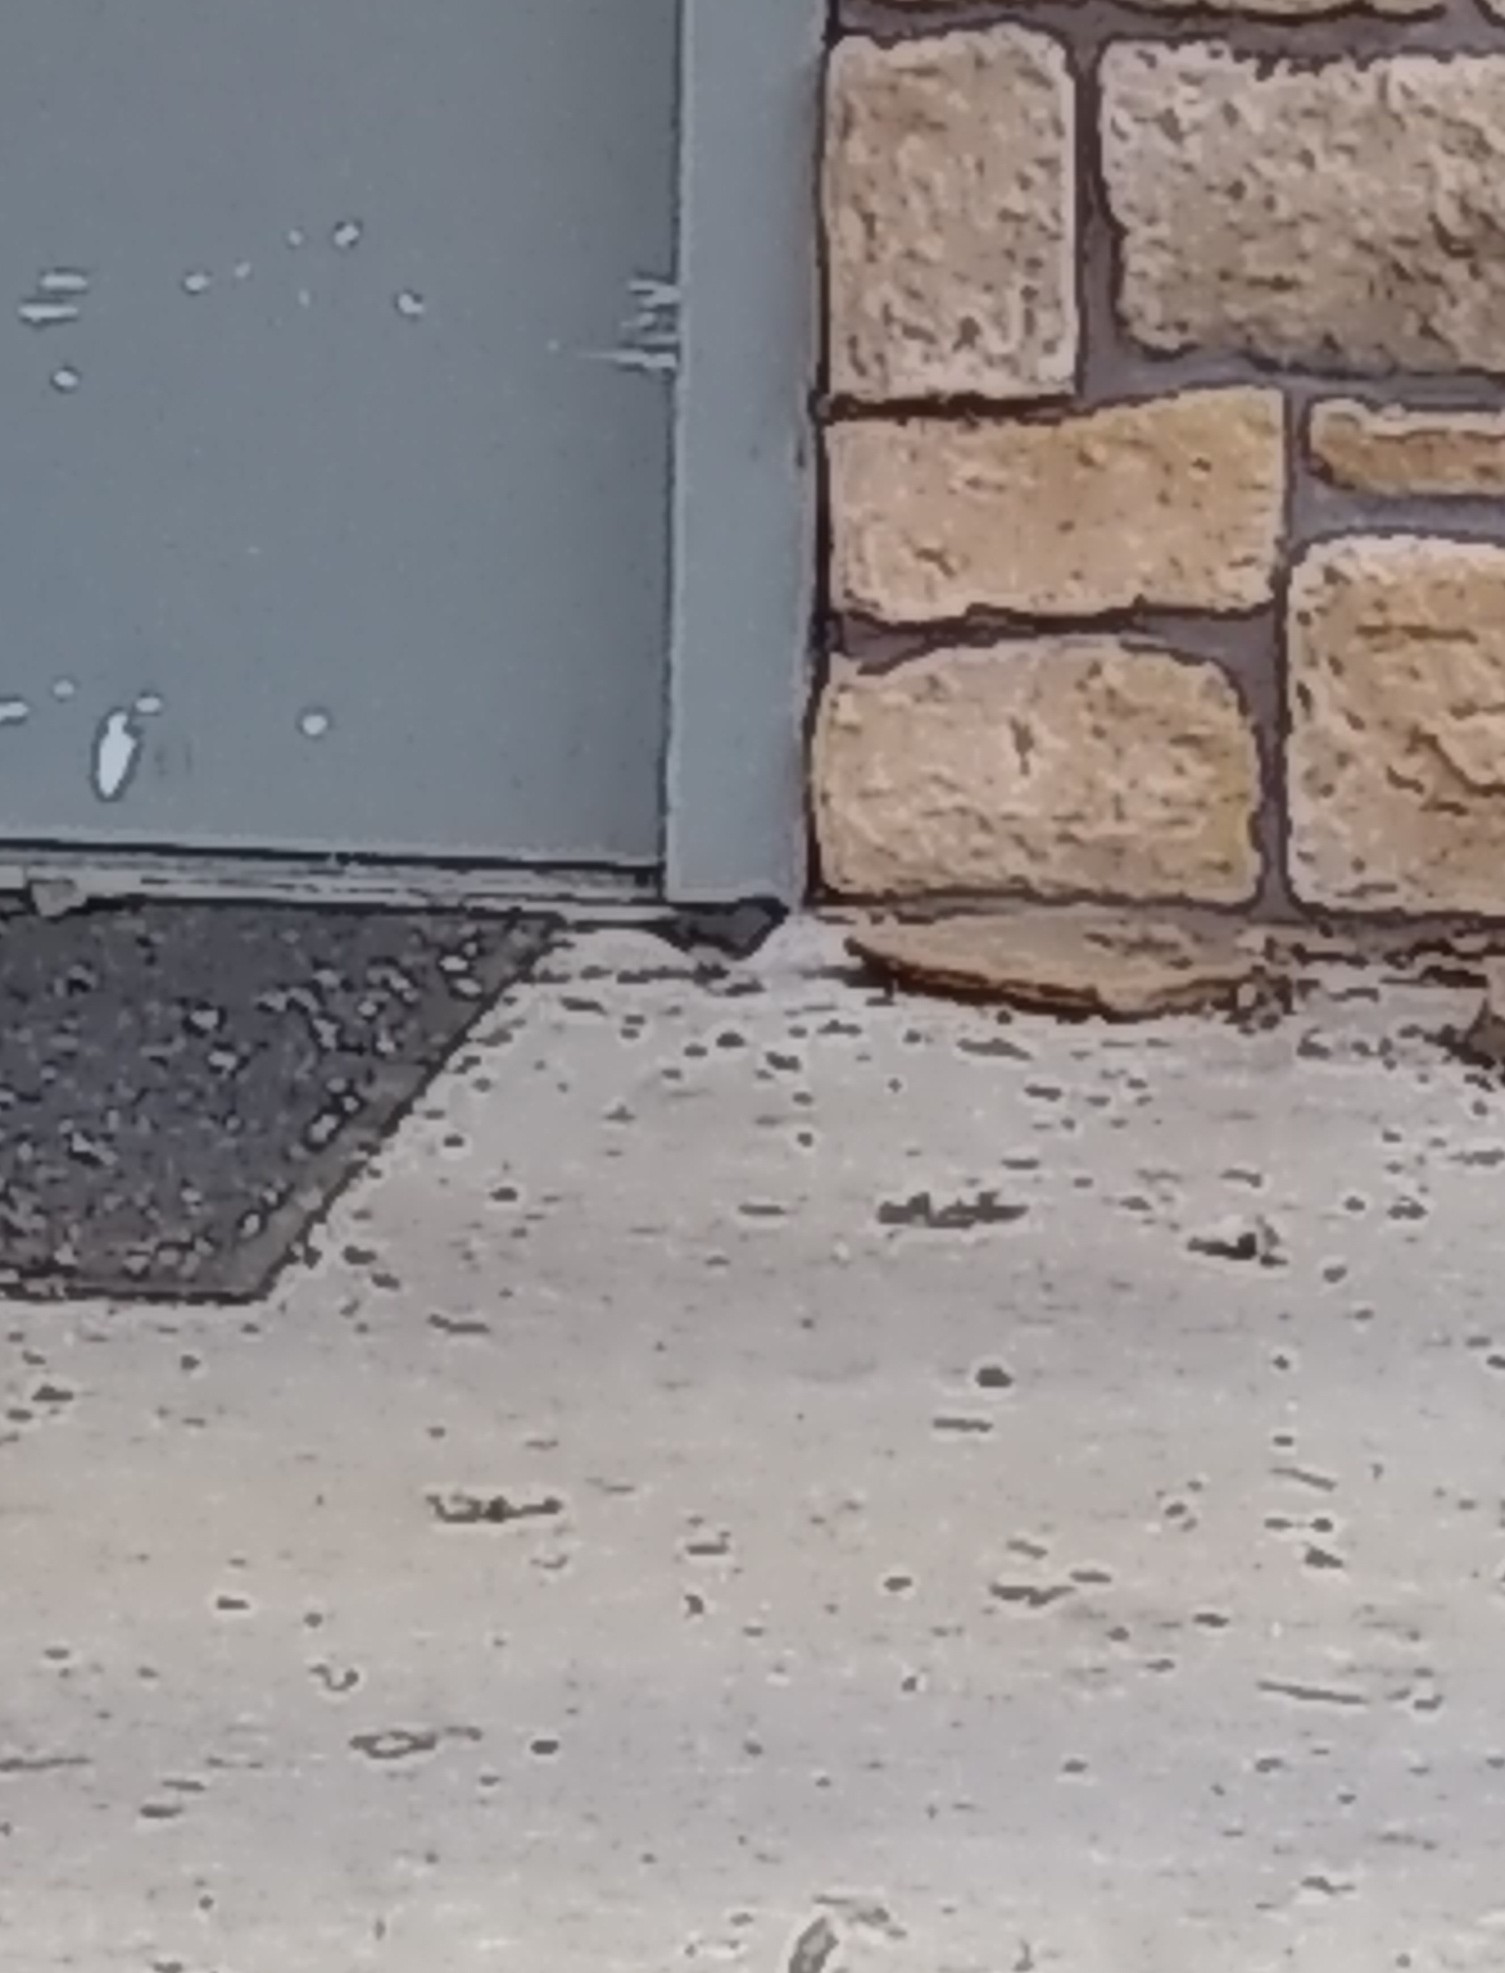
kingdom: Animalia
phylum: Chordata
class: Aves
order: Passeriformes
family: Passerellidae
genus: Junco
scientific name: Junco hyemalis
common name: Dark-eyed junco
